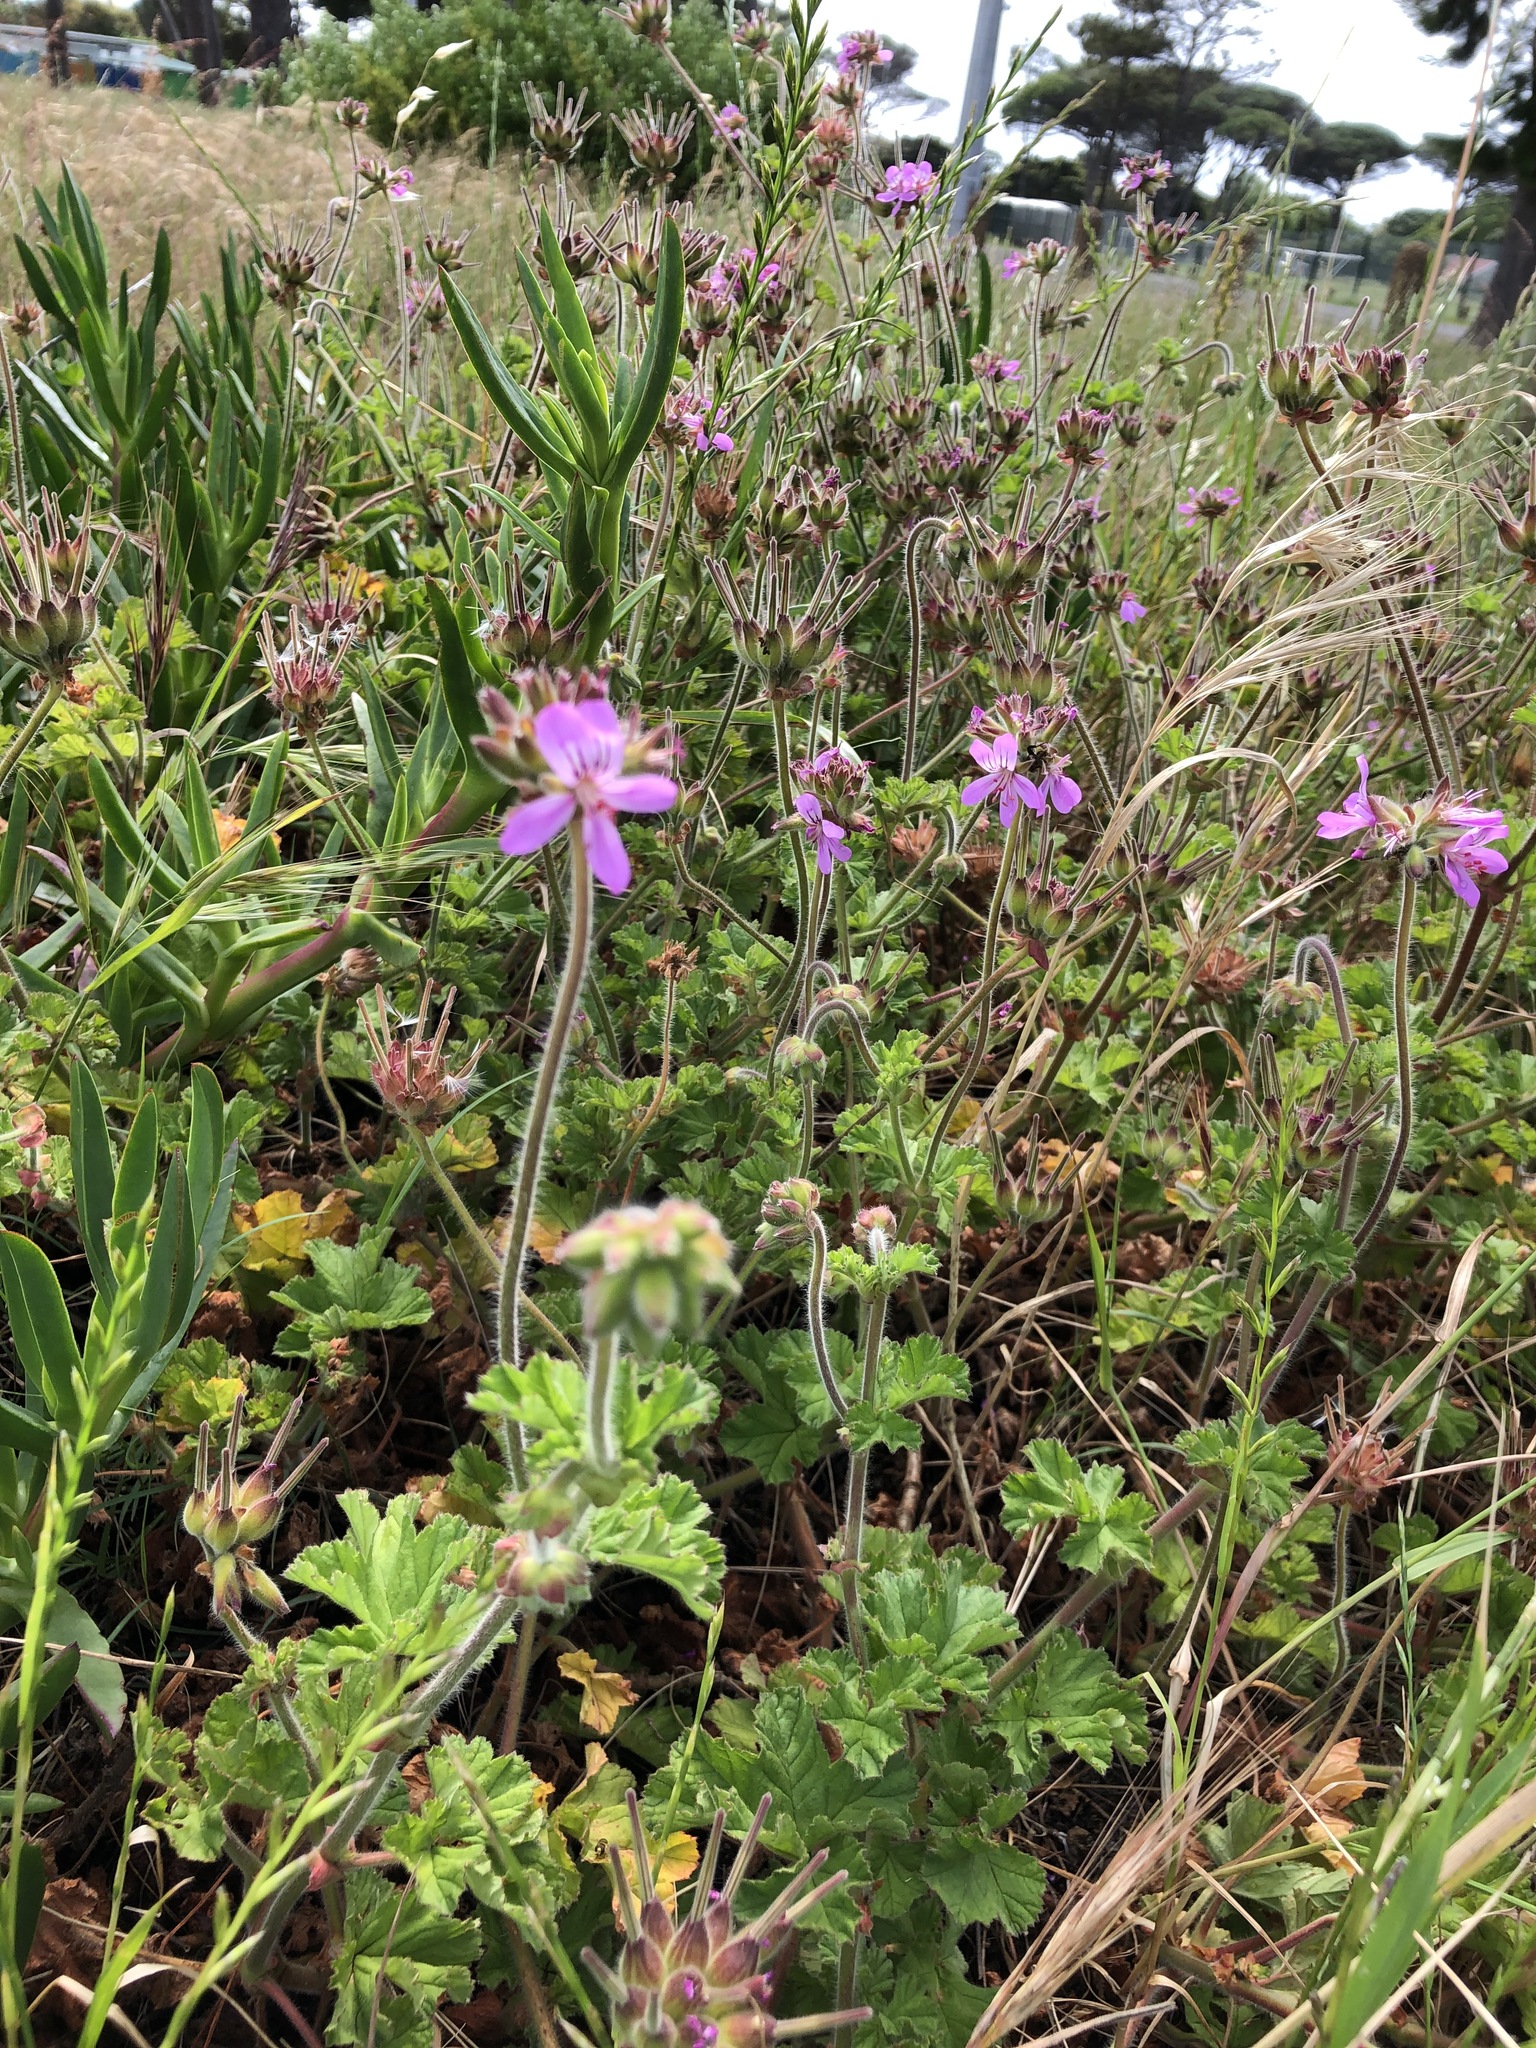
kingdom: Plantae
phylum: Tracheophyta
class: Magnoliopsida
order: Geraniales
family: Geraniaceae
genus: Pelargonium
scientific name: Pelargonium capitatum
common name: Rose scented geranium
